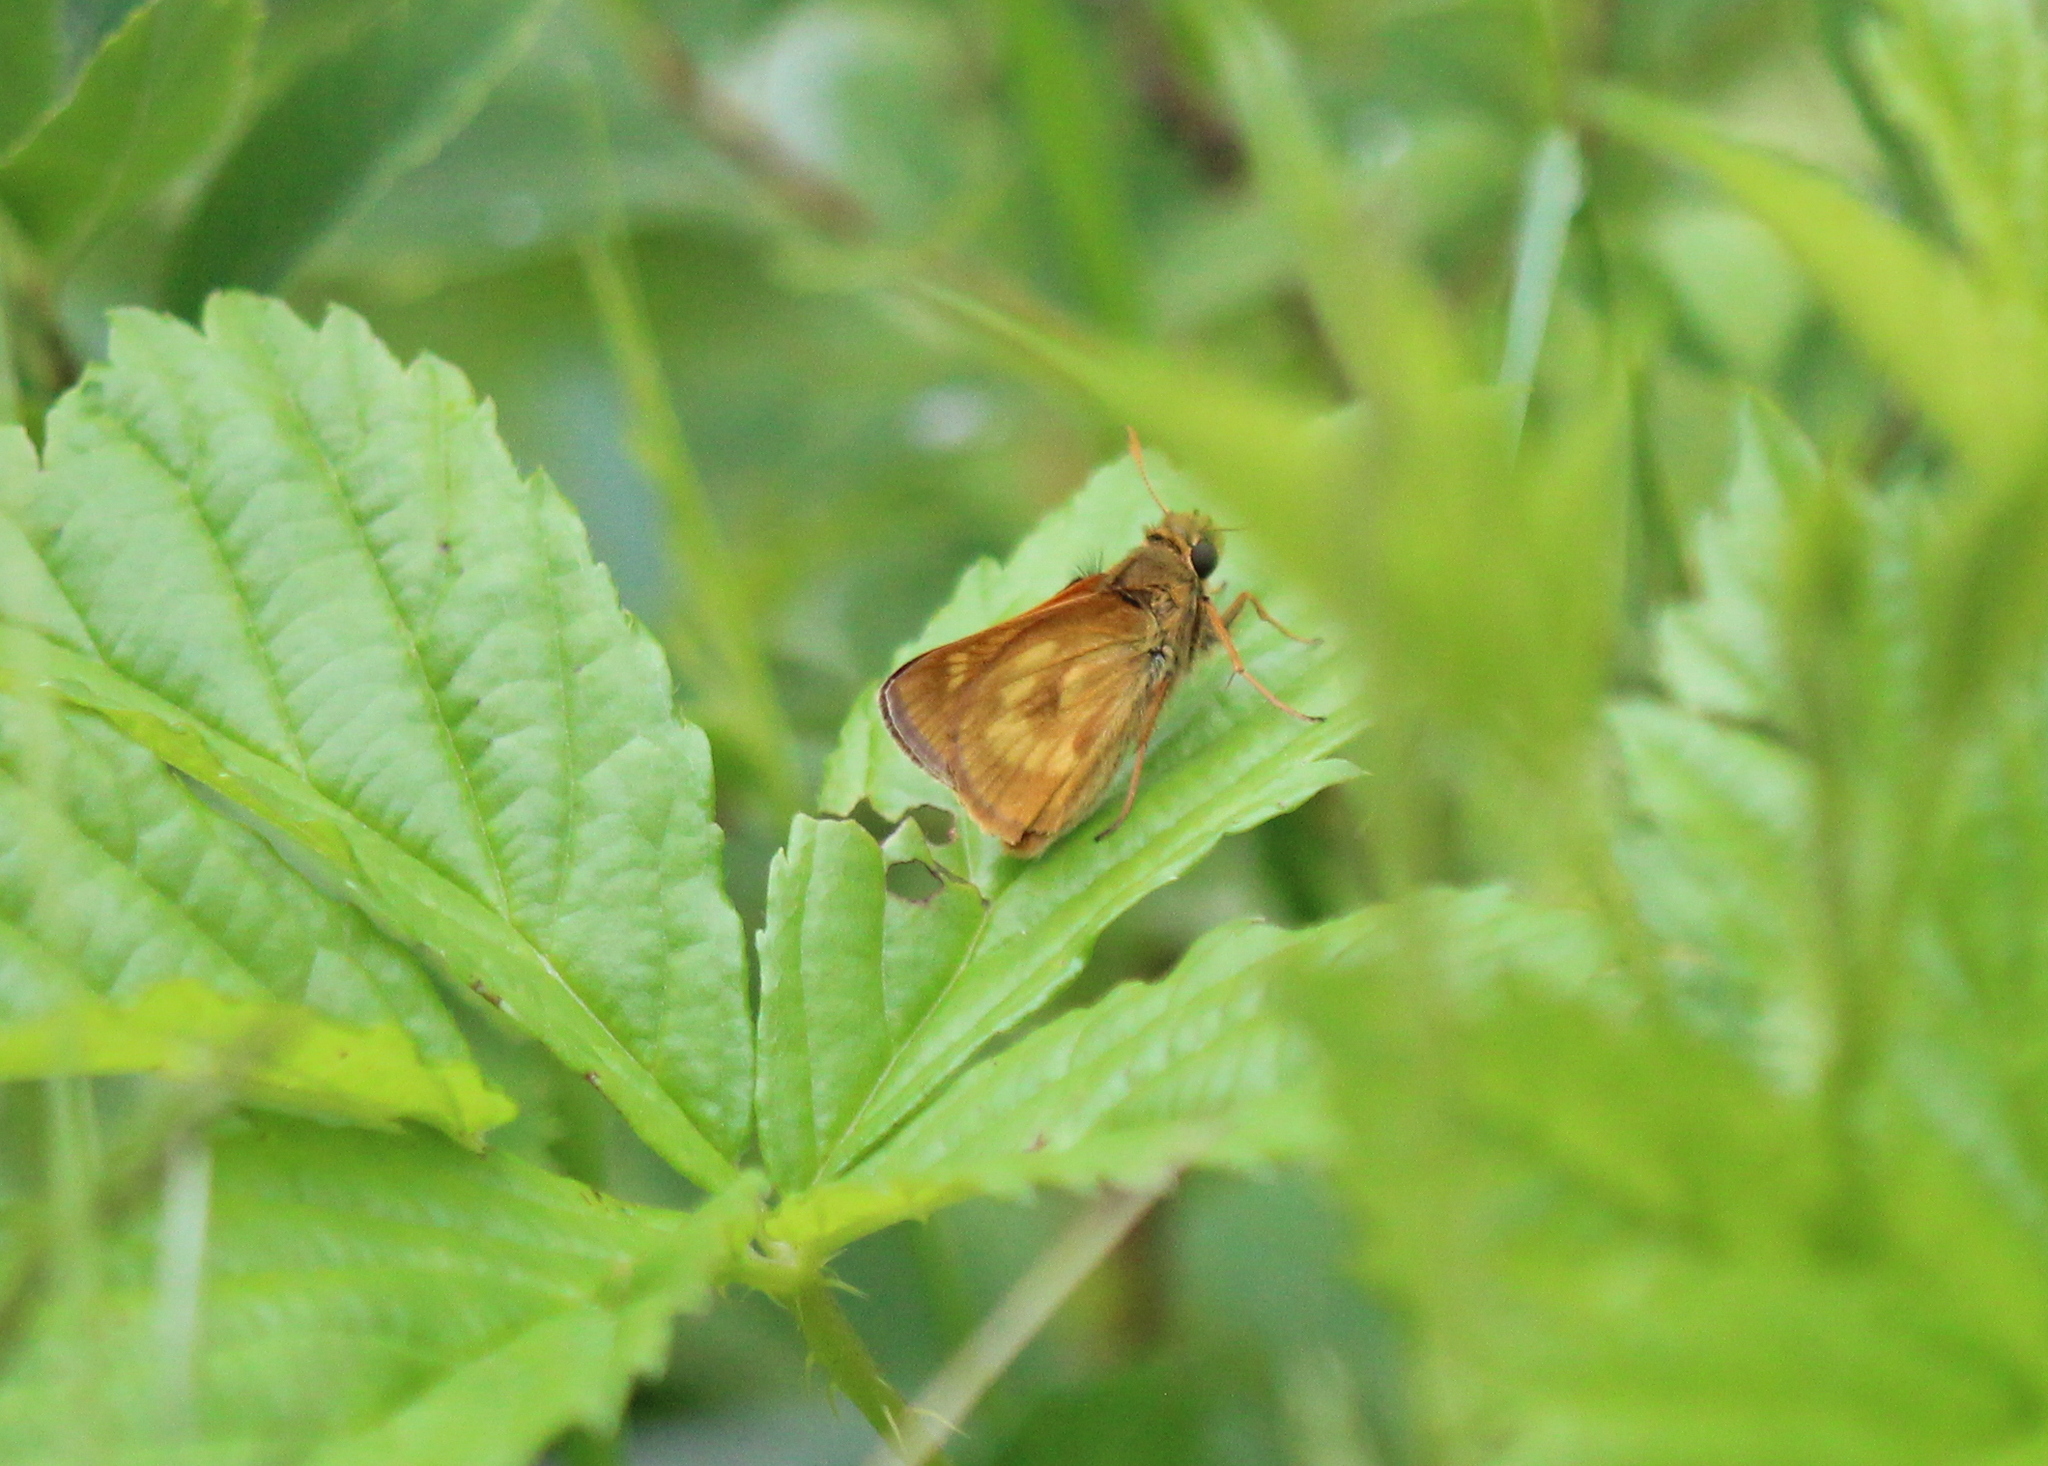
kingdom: Animalia
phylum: Arthropoda
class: Insecta
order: Lepidoptera
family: Hesperiidae
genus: Polites
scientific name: Polites mystic
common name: Long dash
